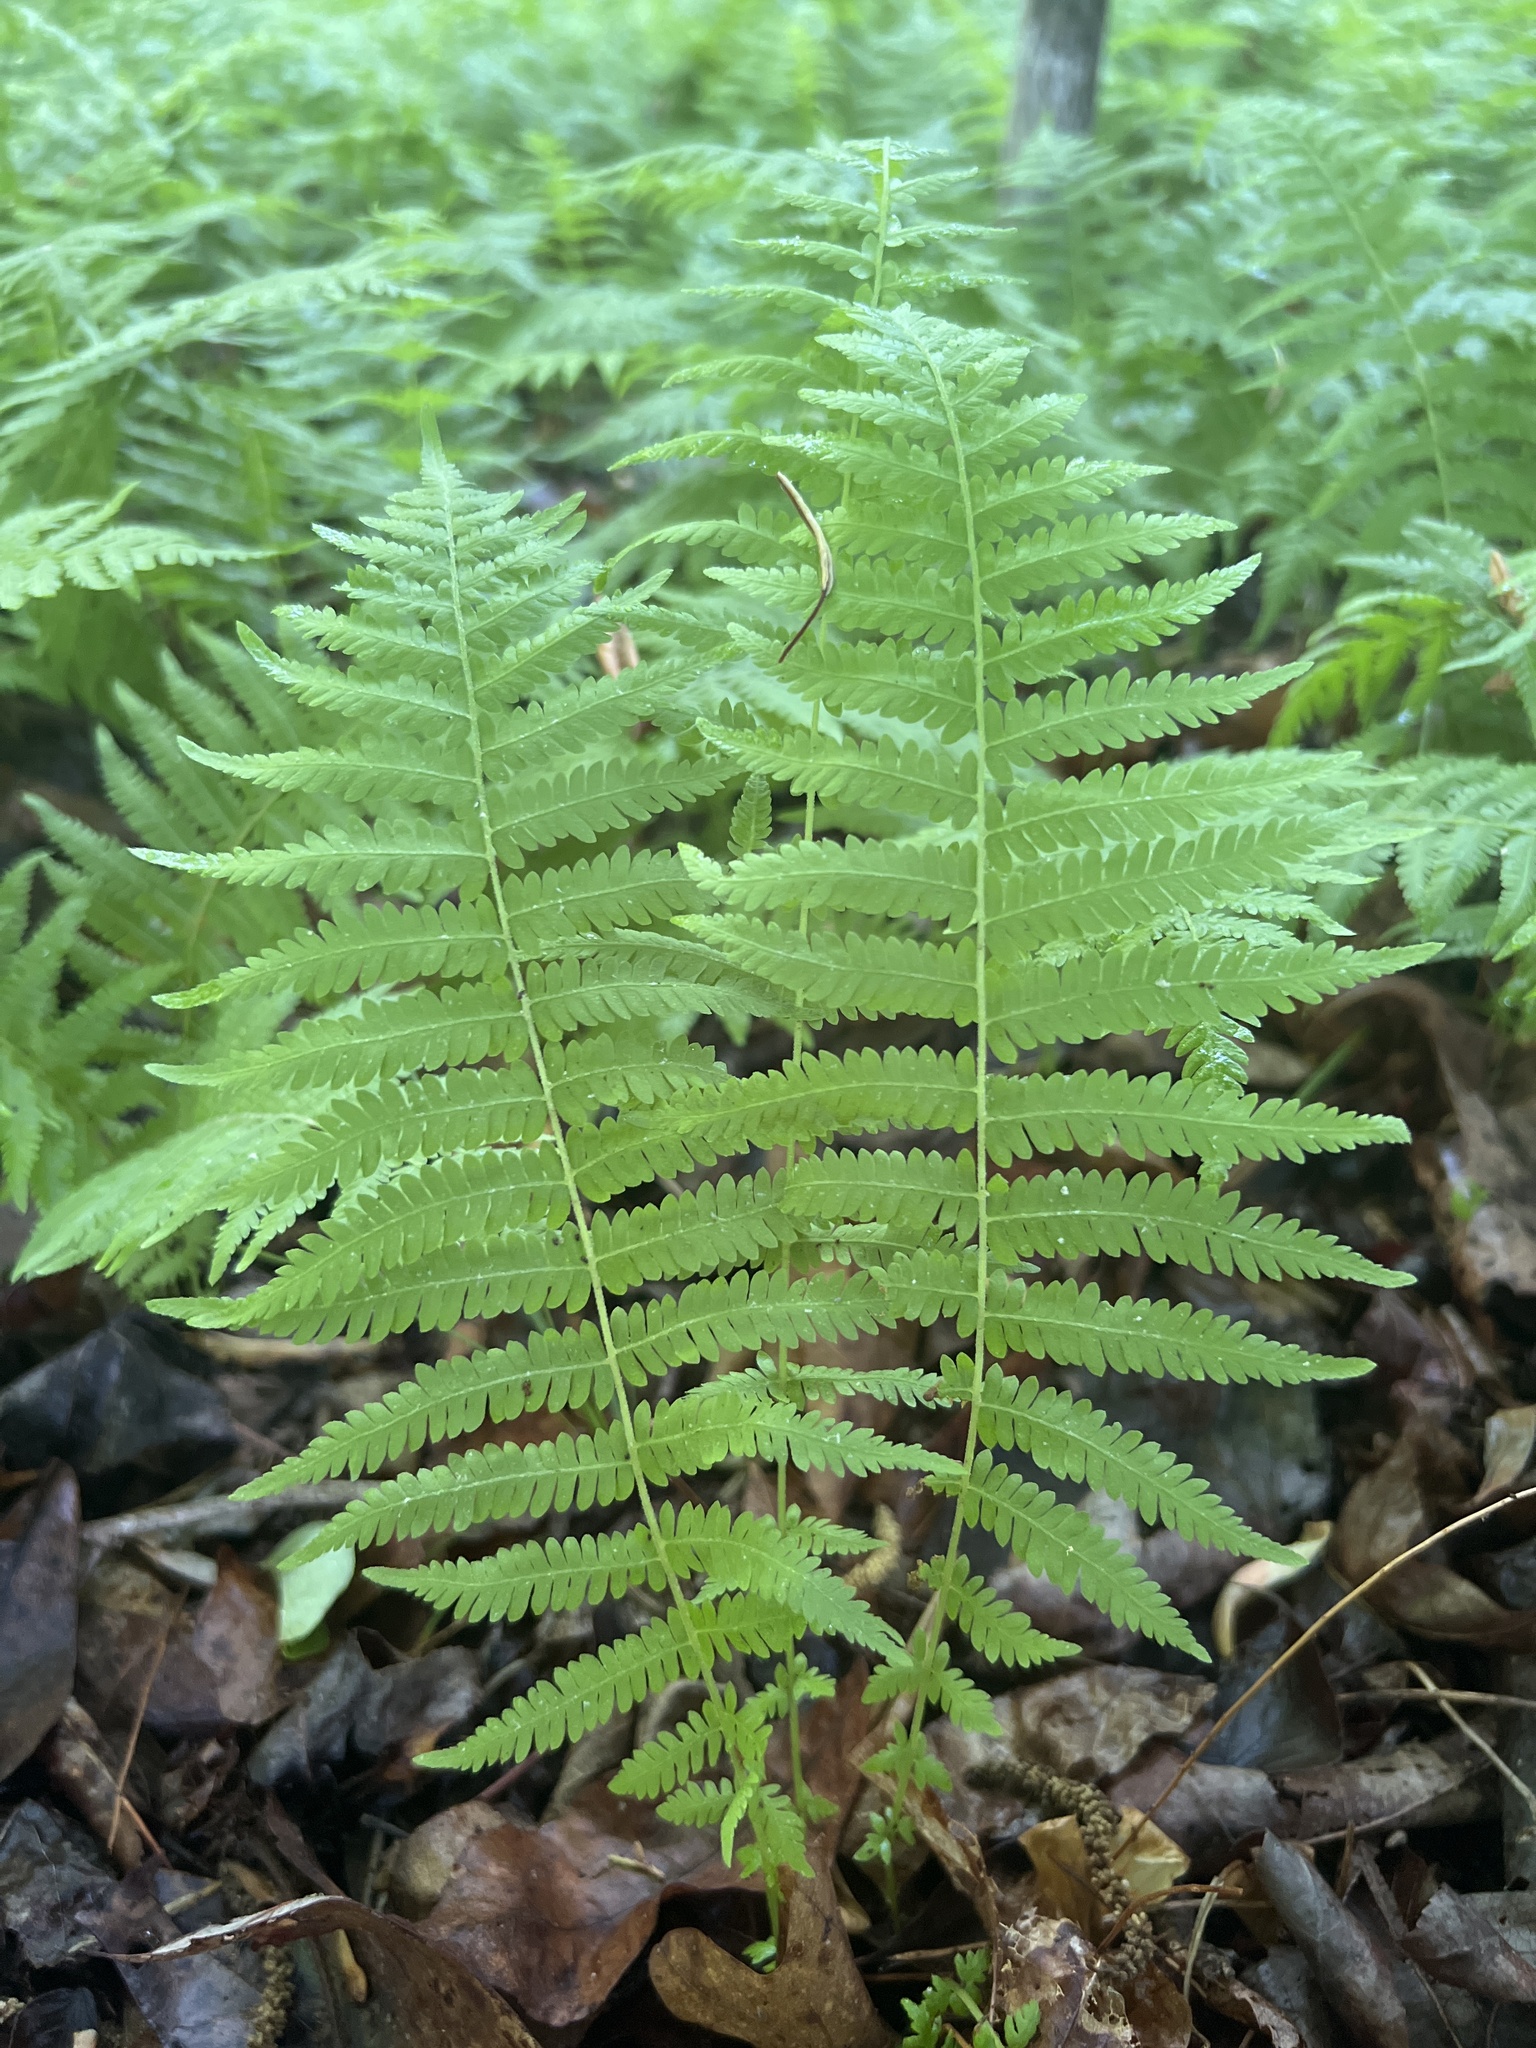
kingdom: Plantae
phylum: Tracheophyta
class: Polypodiopsida
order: Polypodiales
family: Thelypteridaceae
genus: Amauropelta
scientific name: Amauropelta noveboracensis
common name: New york fern
